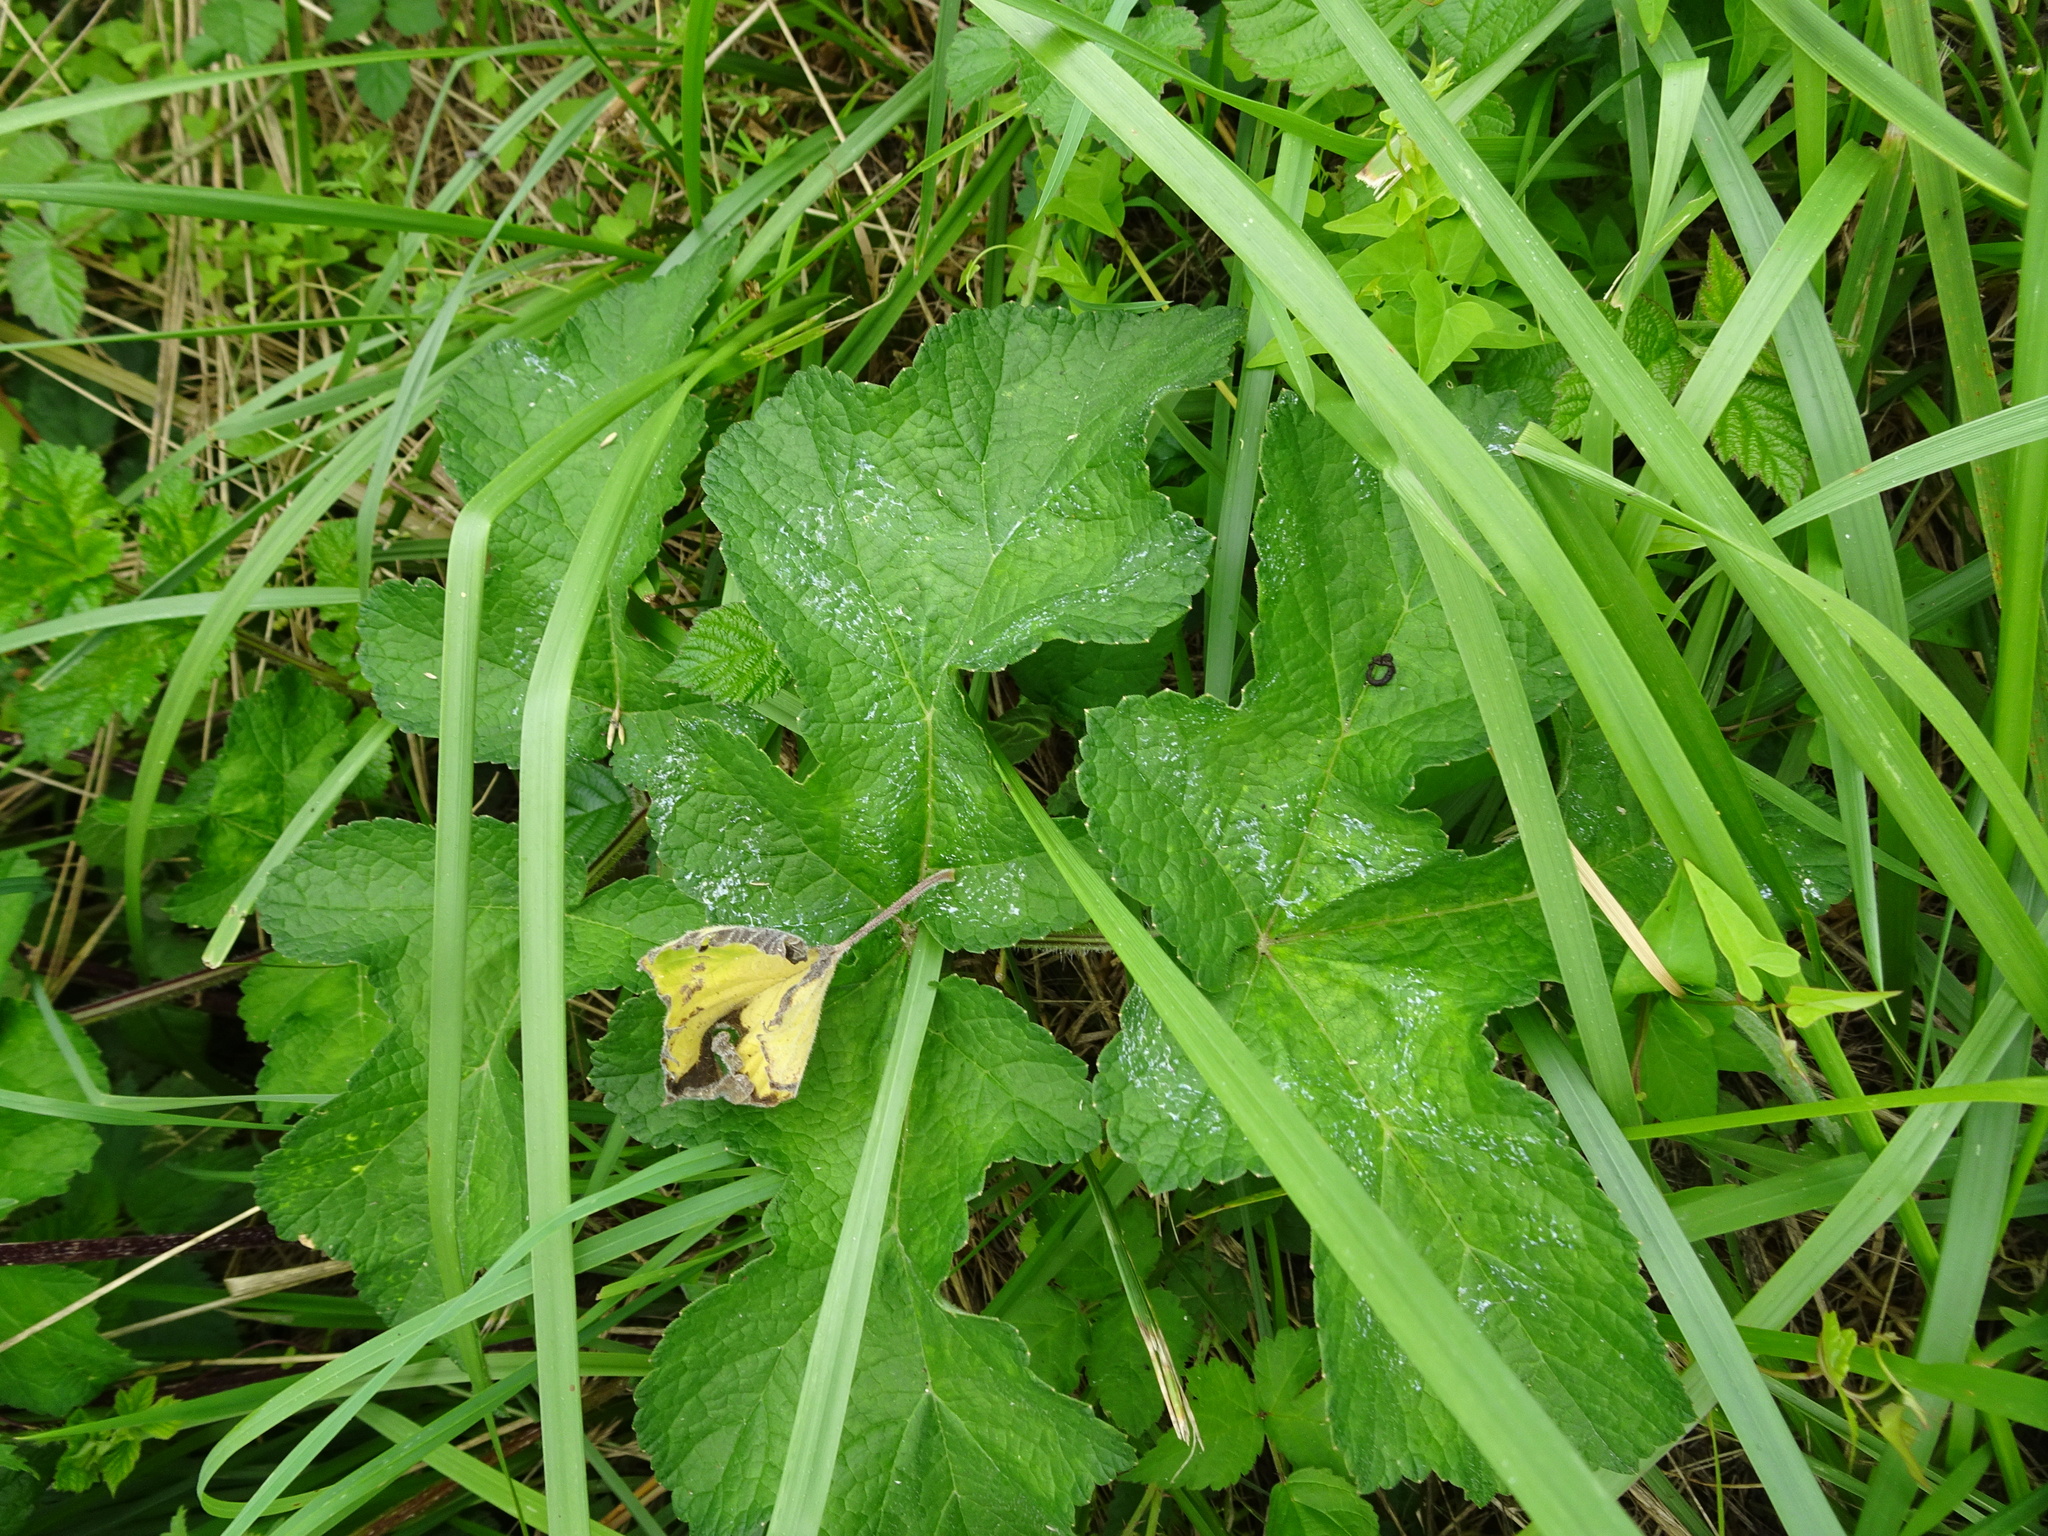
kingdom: Plantae
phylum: Tracheophyta
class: Magnoliopsida
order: Apiales
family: Apiaceae
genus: Heracleum
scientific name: Heracleum sphondylium
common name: Hogweed
